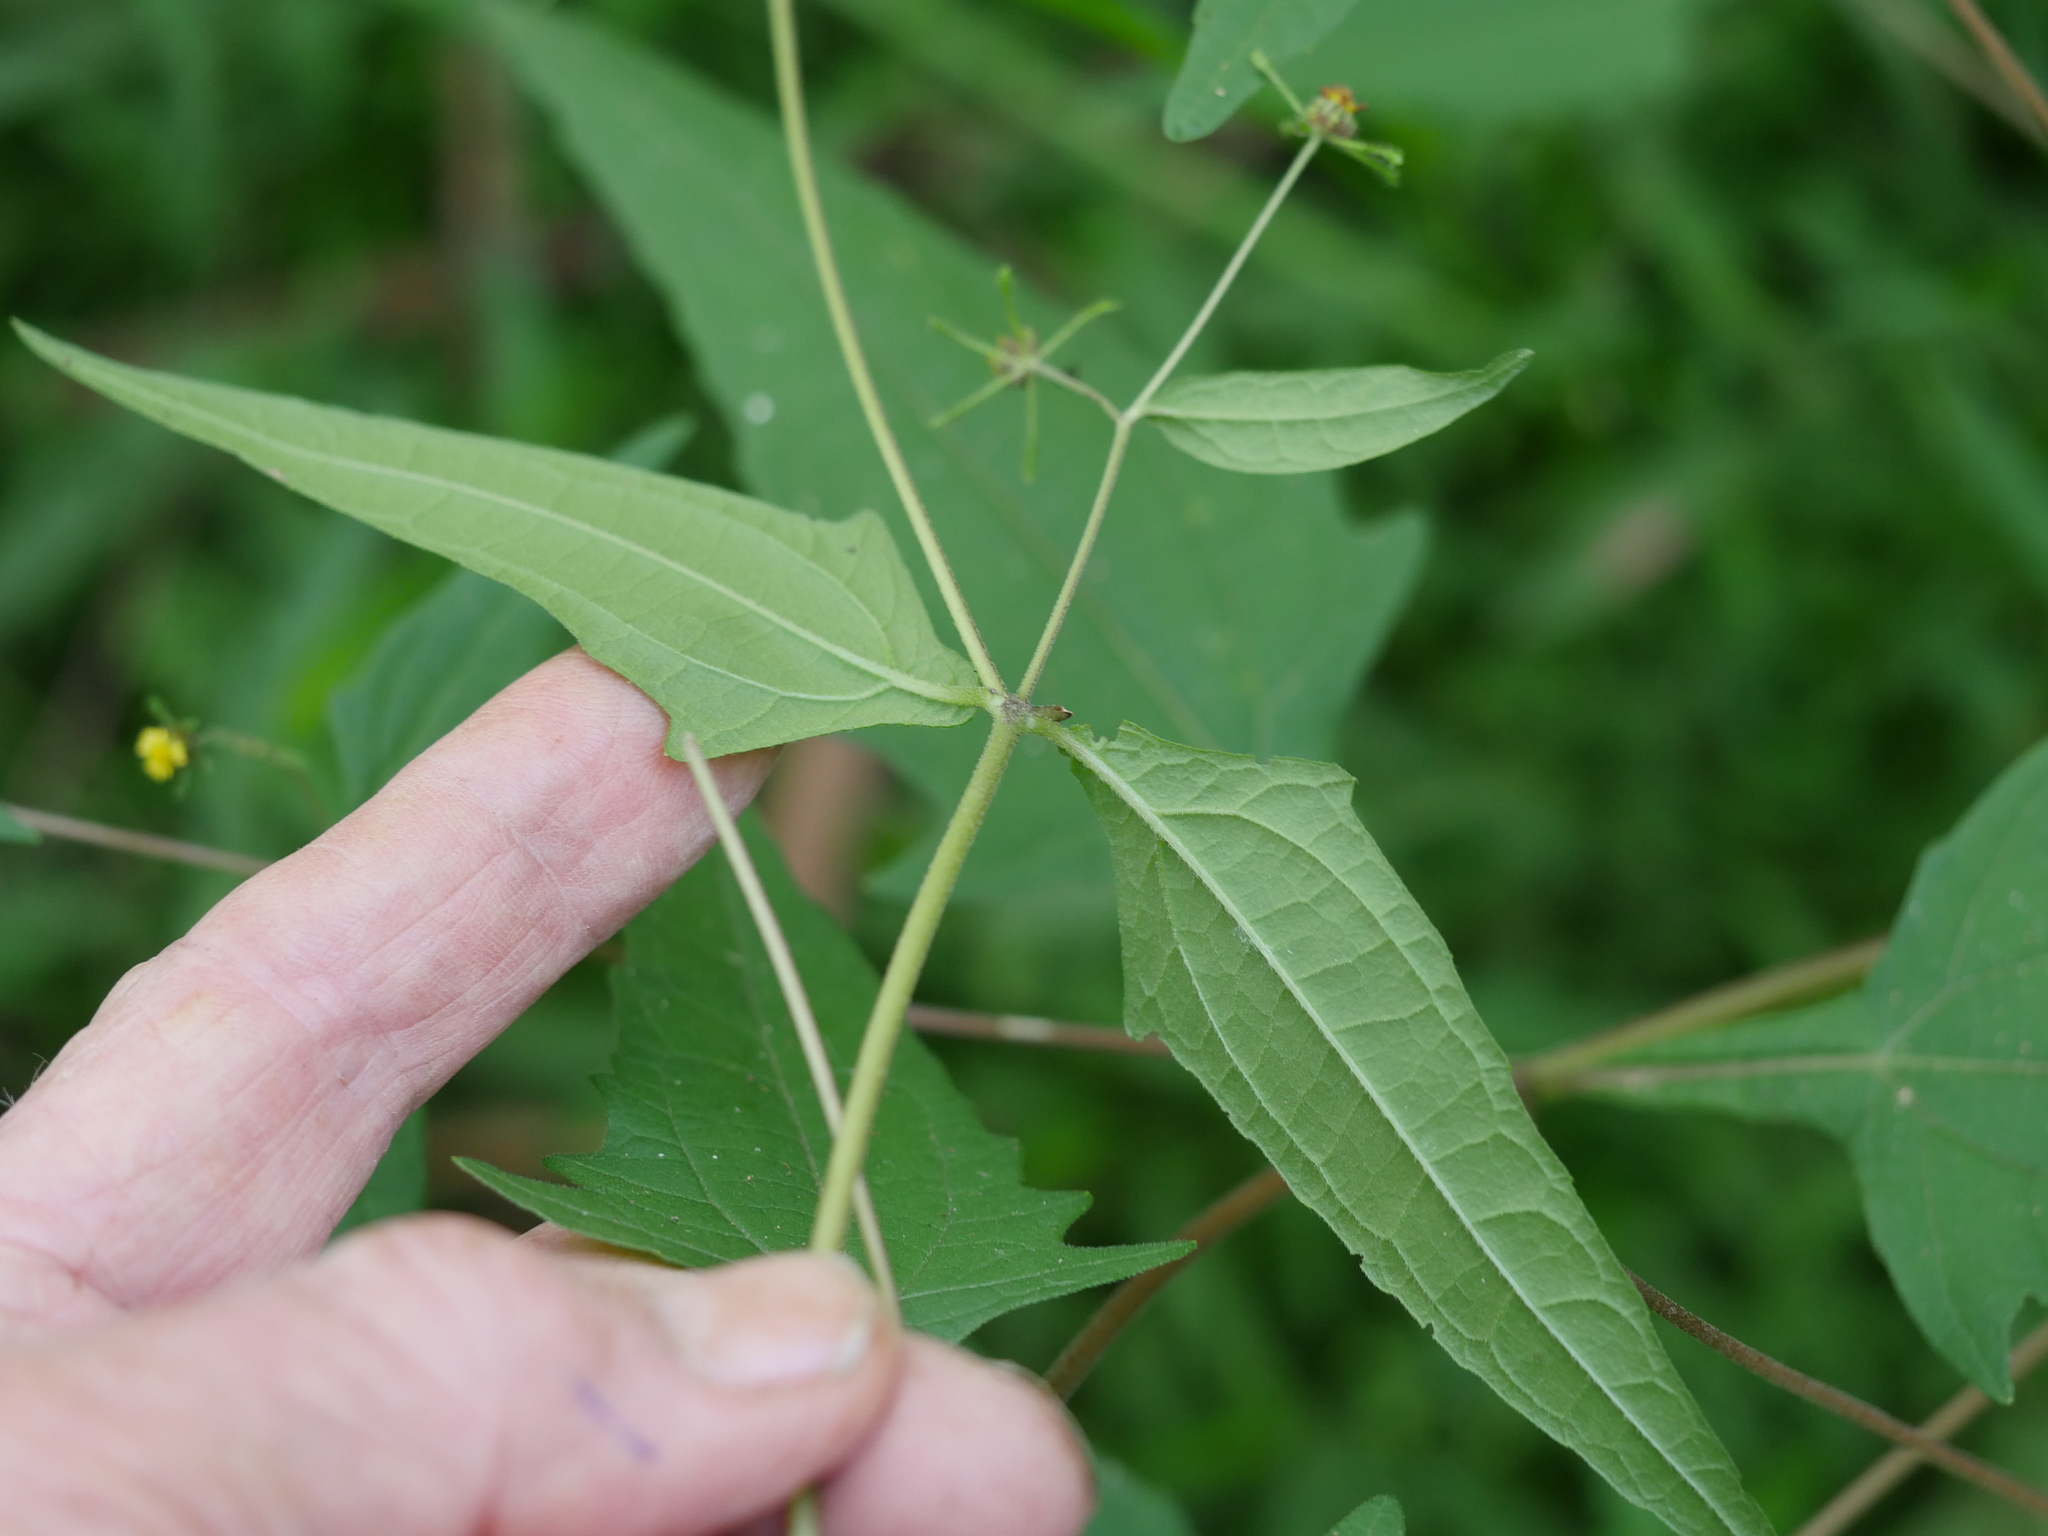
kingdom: Plantae
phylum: Tracheophyta
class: Magnoliopsida
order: Asterales
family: Asteraceae
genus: Sigesbeckia
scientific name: Sigesbeckia orientalis
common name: Eastern st paul's-wort
